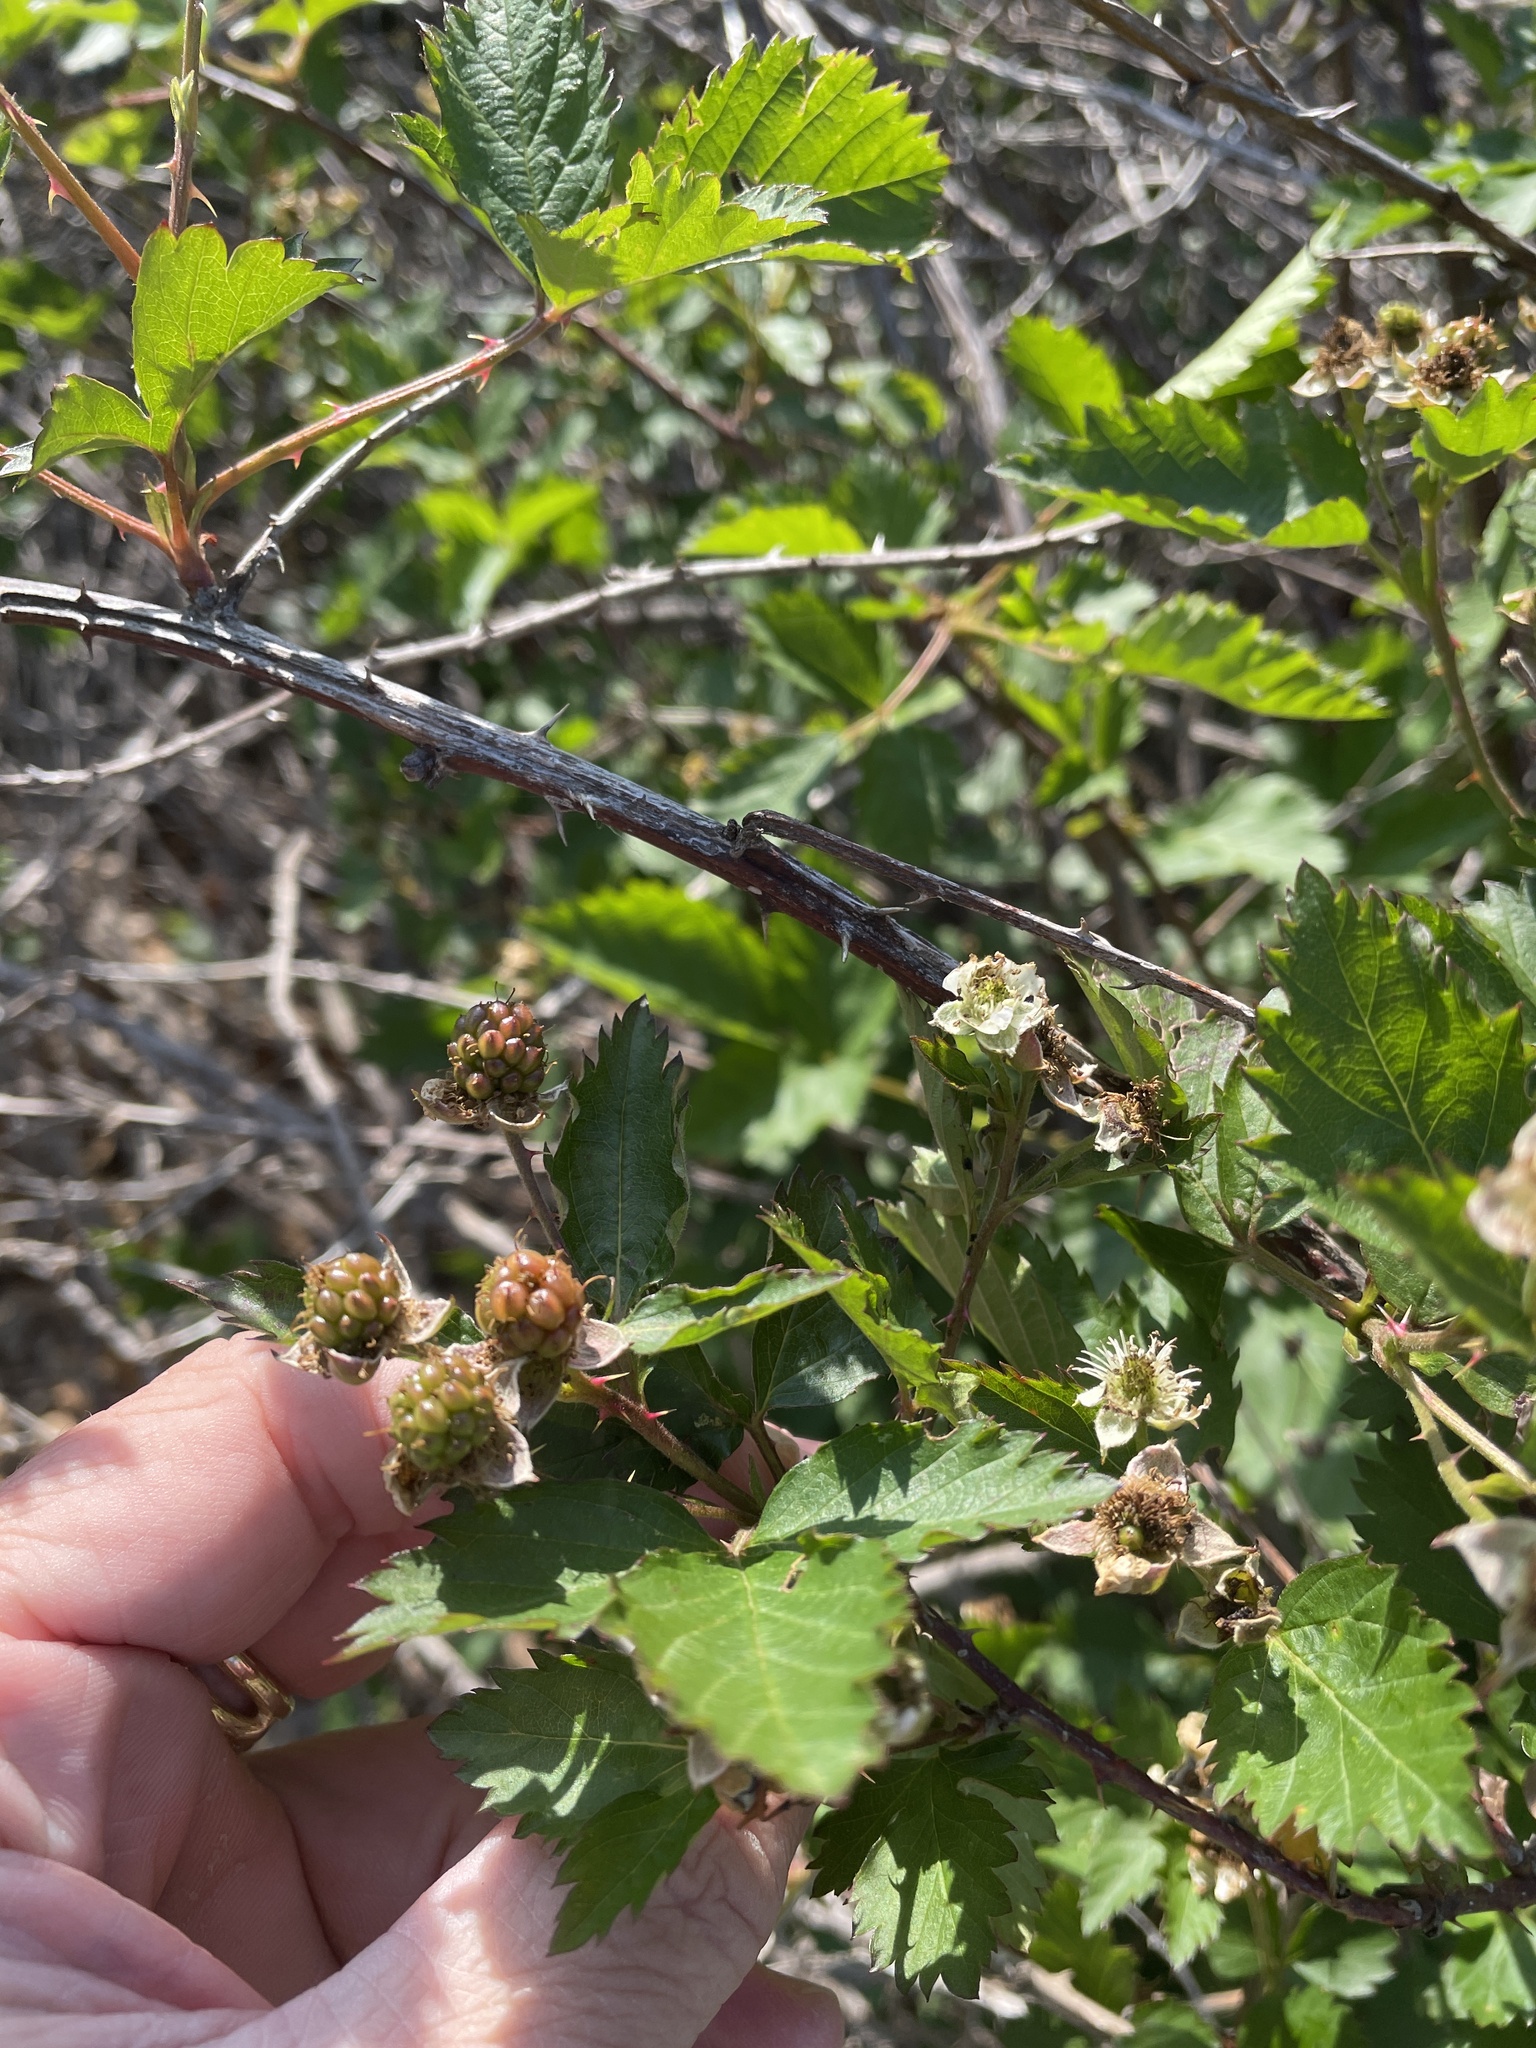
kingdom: Plantae
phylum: Tracheophyta
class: Magnoliopsida
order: Rosales
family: Rosaceae
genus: Rubus
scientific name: Rubus oklahomus
